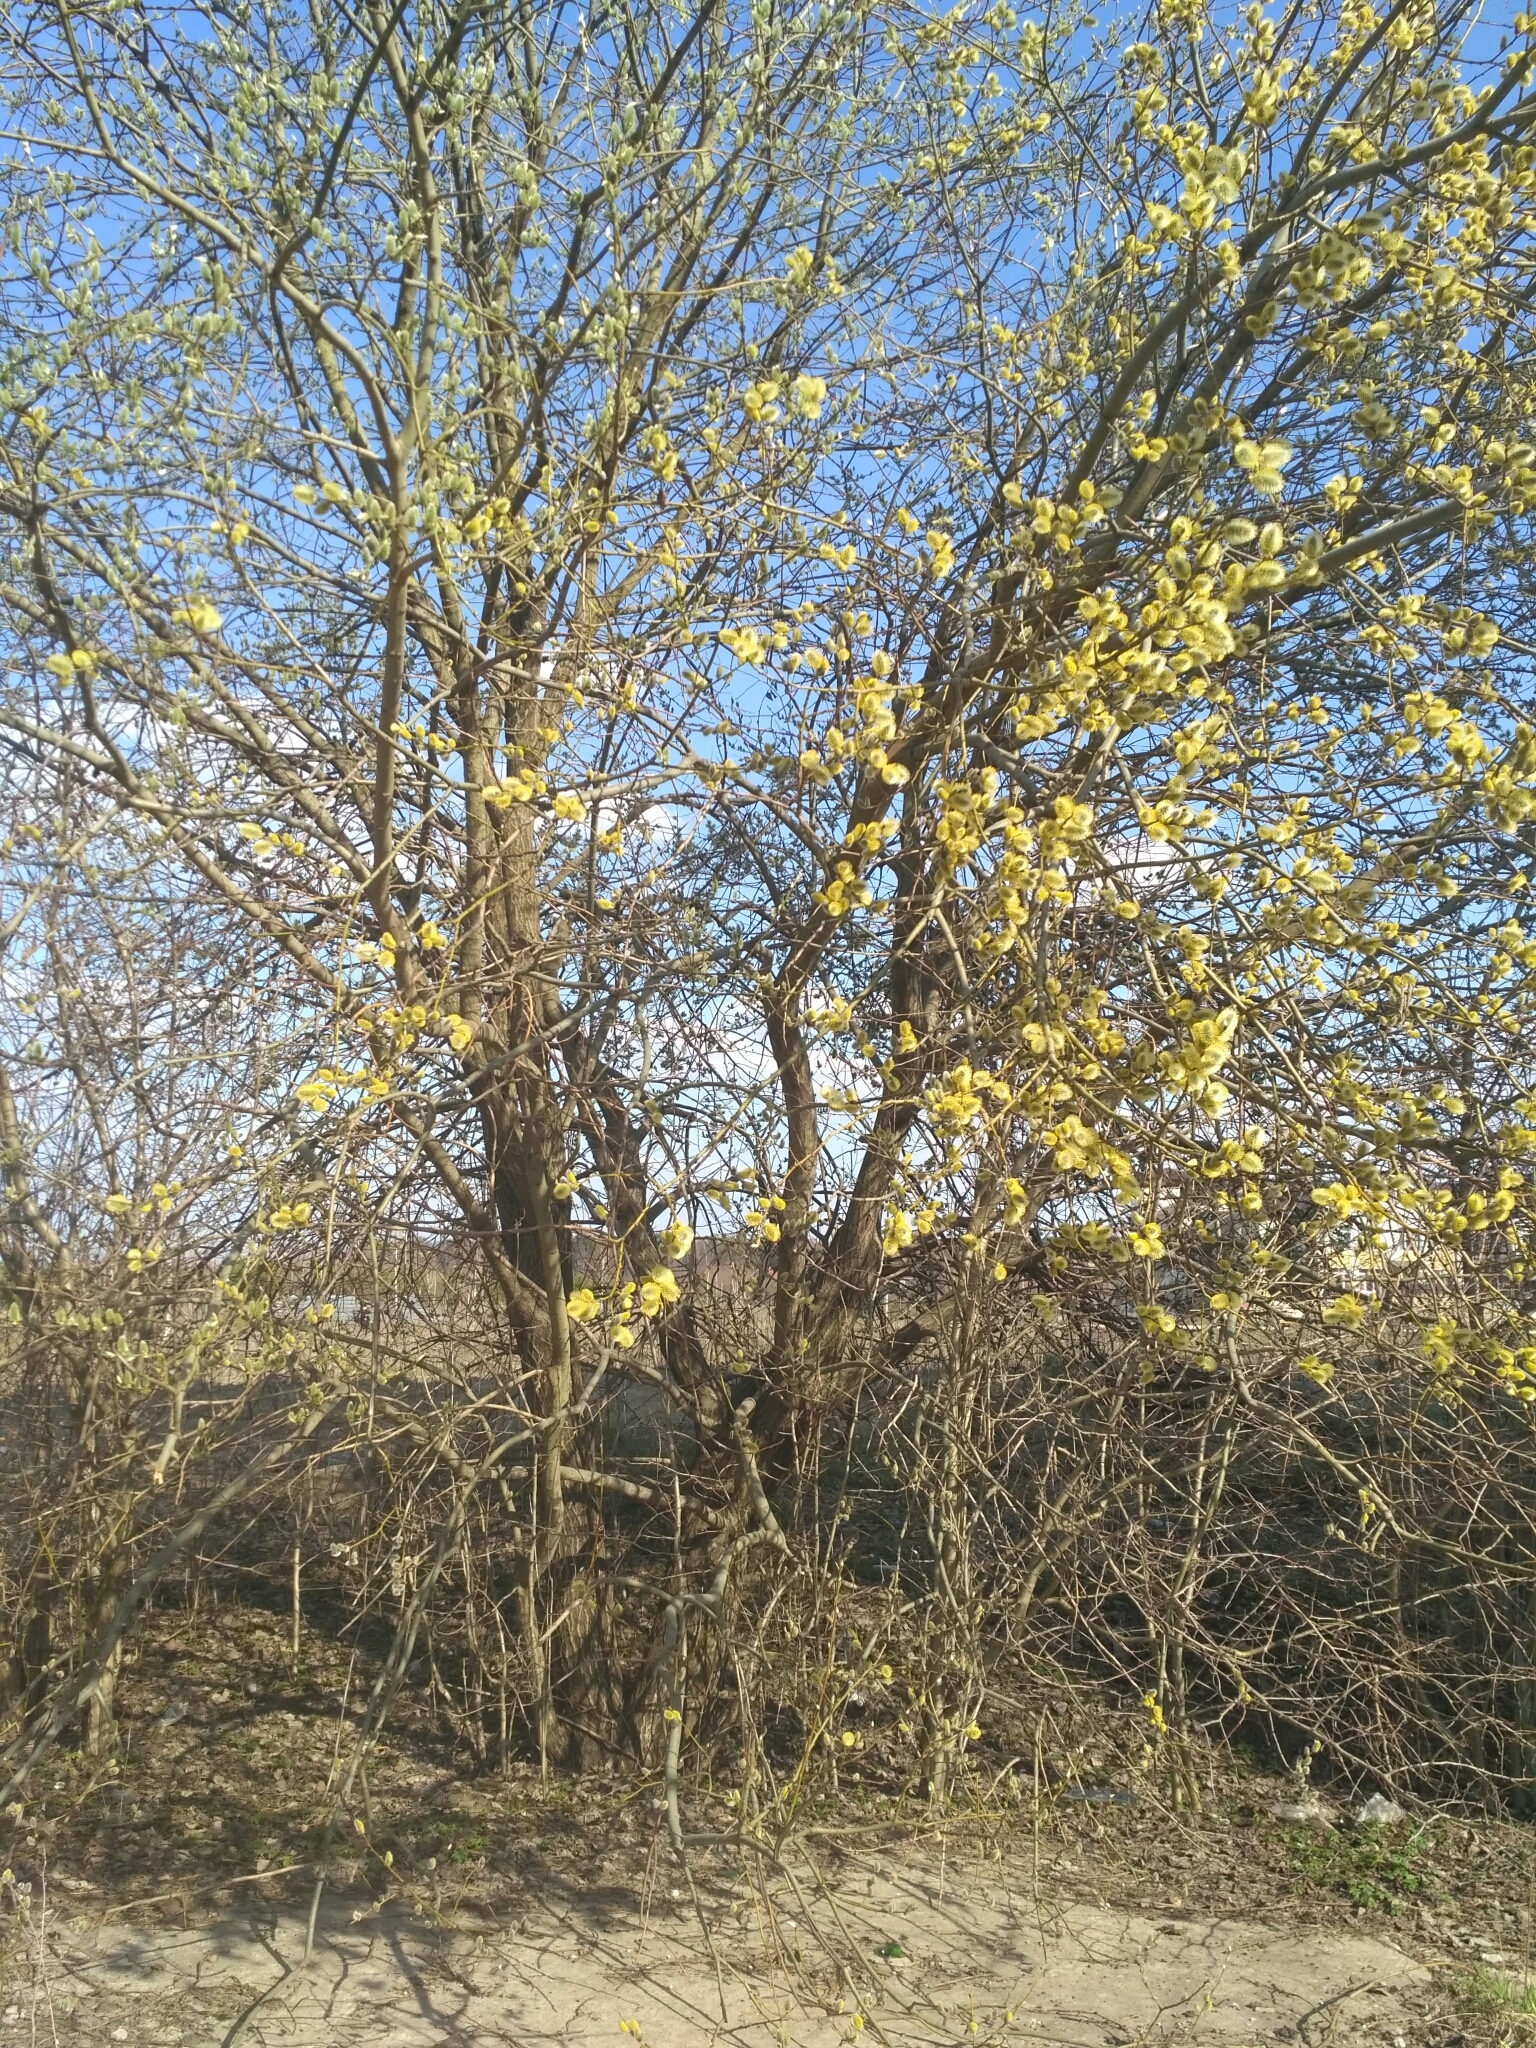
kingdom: Plantae
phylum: Tracheophyta
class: Magnoliopsida
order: Malpighiales
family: Salicaceae
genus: Salix
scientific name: Salix caprea
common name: Goat willow
